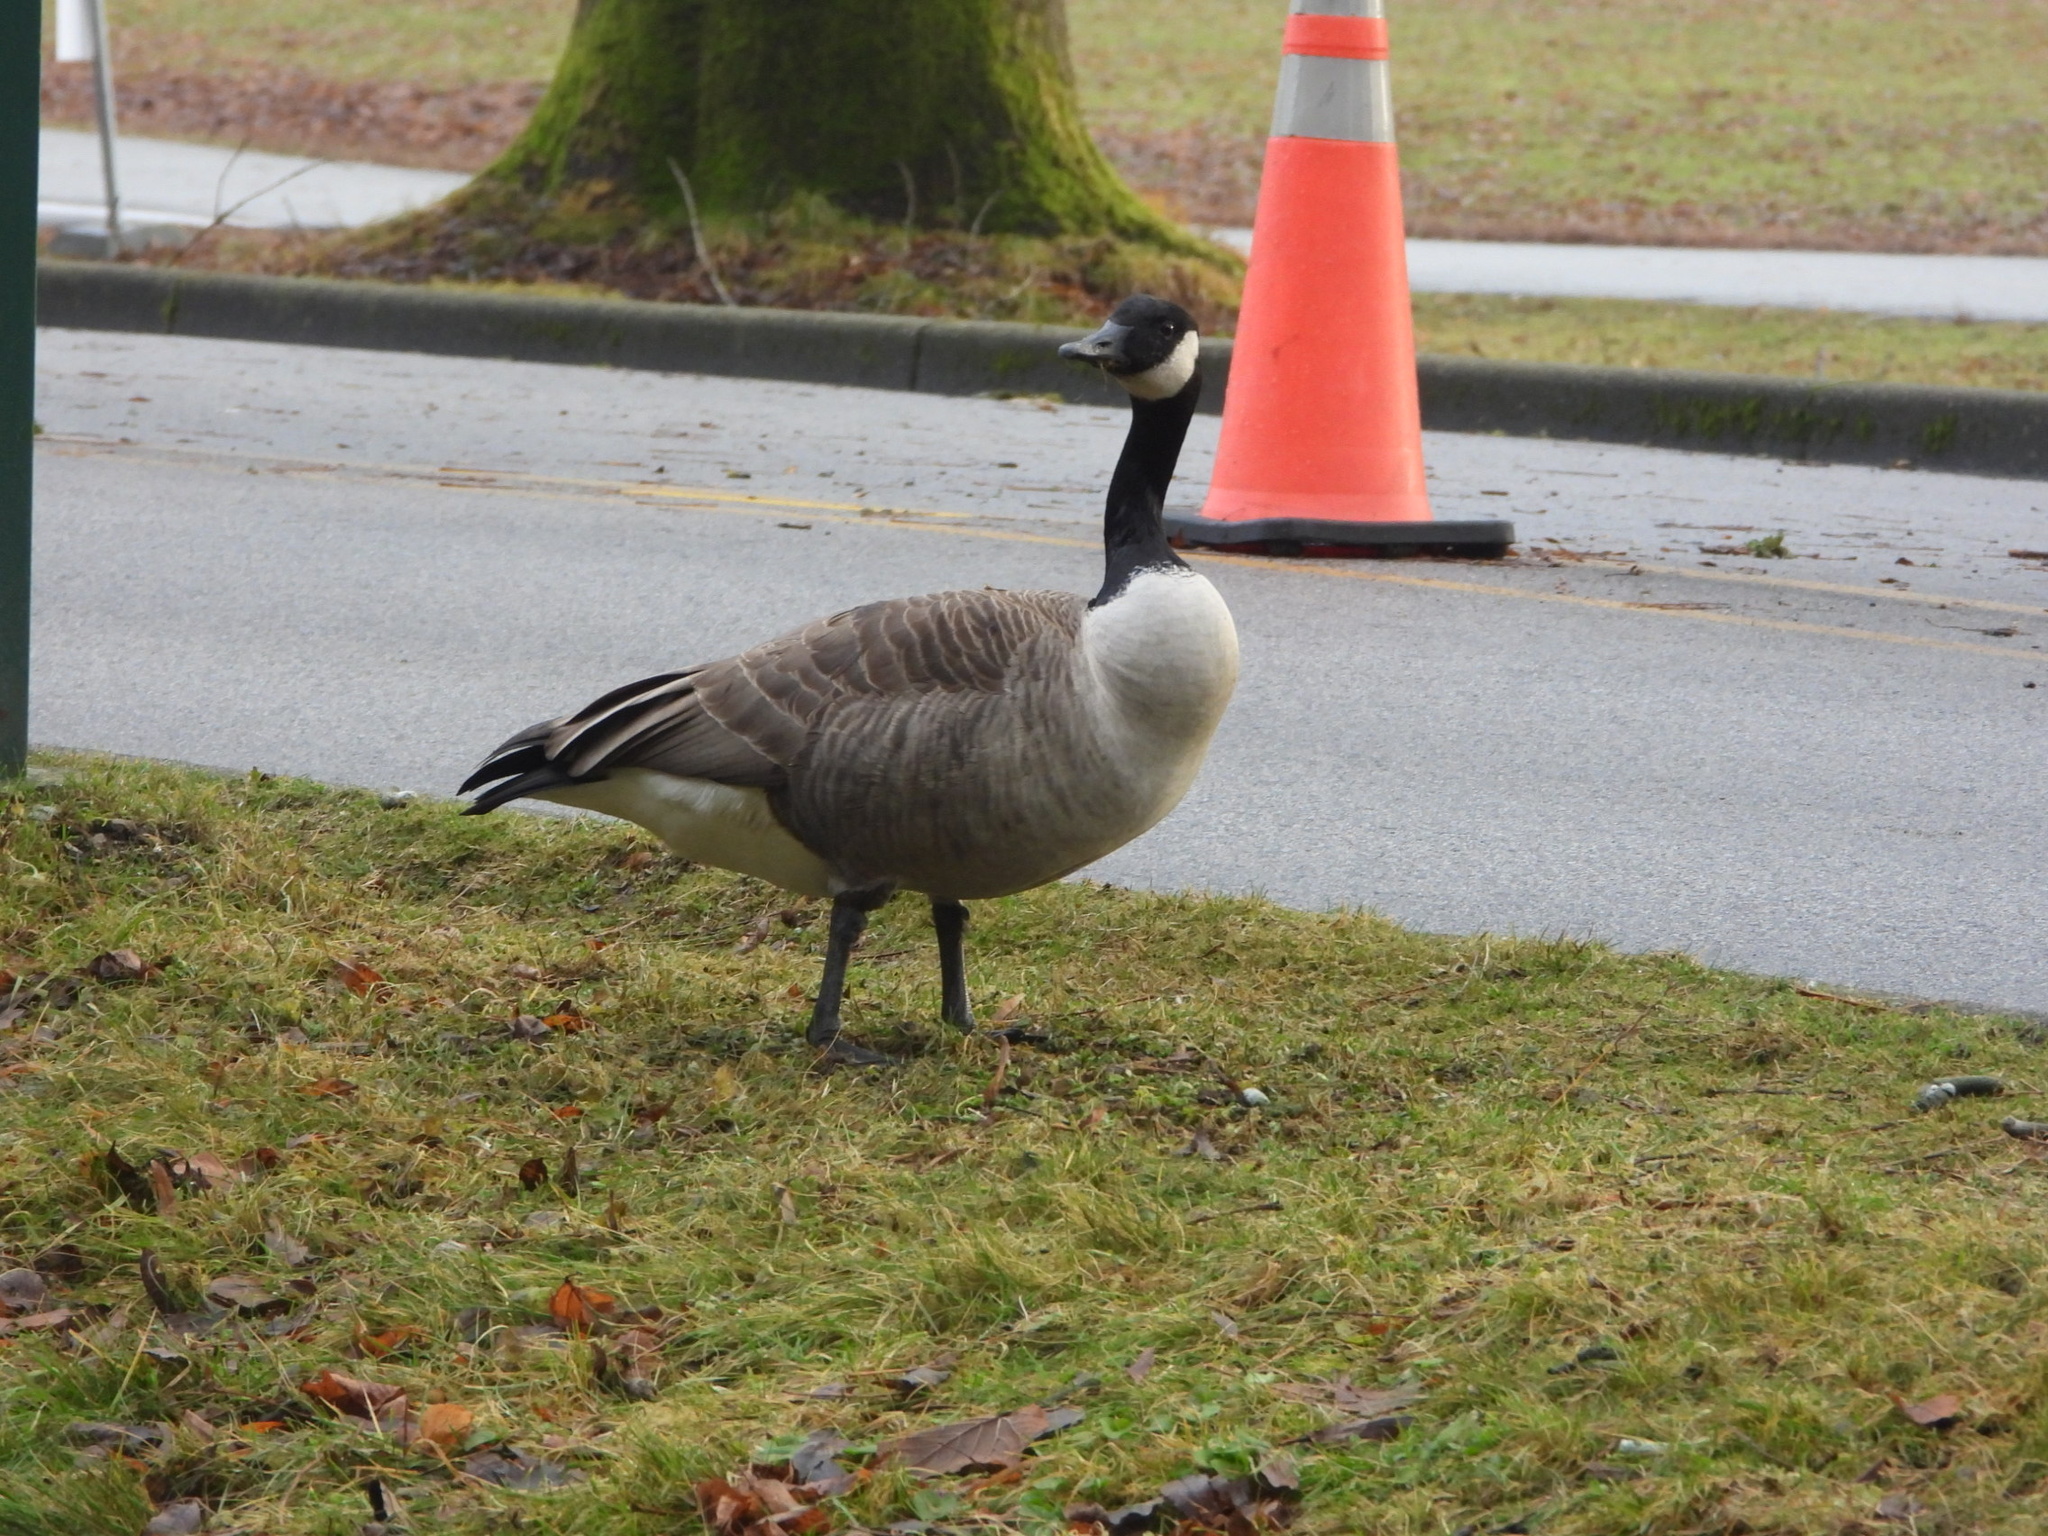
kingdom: Animalia
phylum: Chordata
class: Aves
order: Anseriformes
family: Anatidae
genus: Branta
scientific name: Branta canadensis
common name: Canada goose
